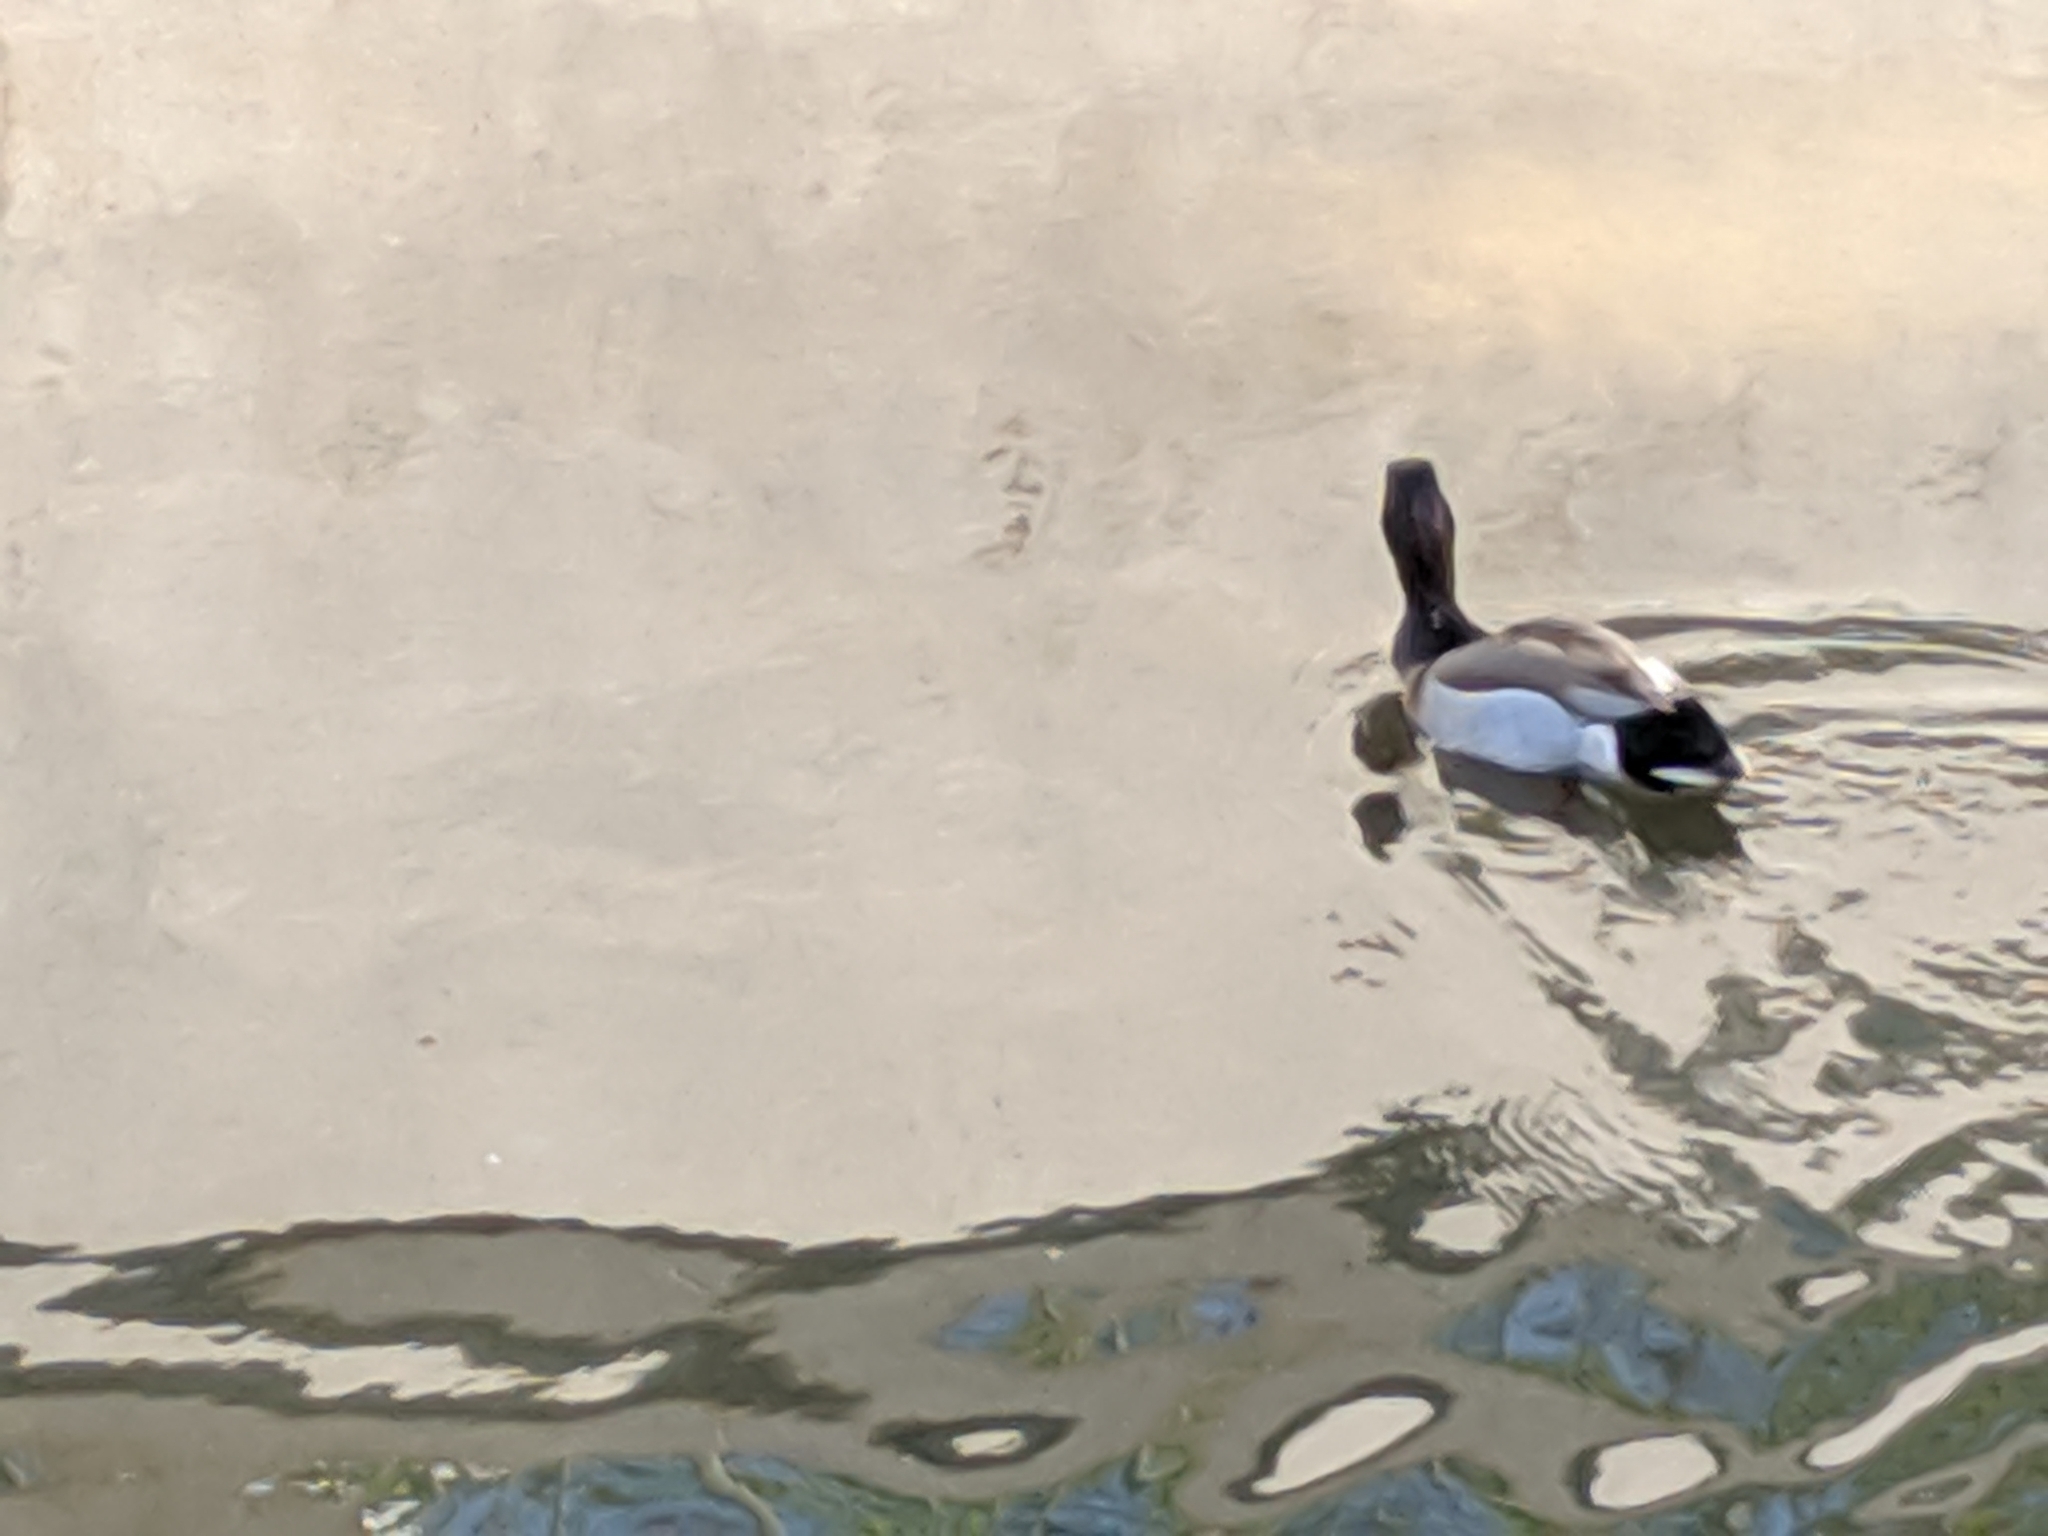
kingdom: Animalia
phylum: Chordata
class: Aves
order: Anseriformes
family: Anatidae
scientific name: Anatidae
